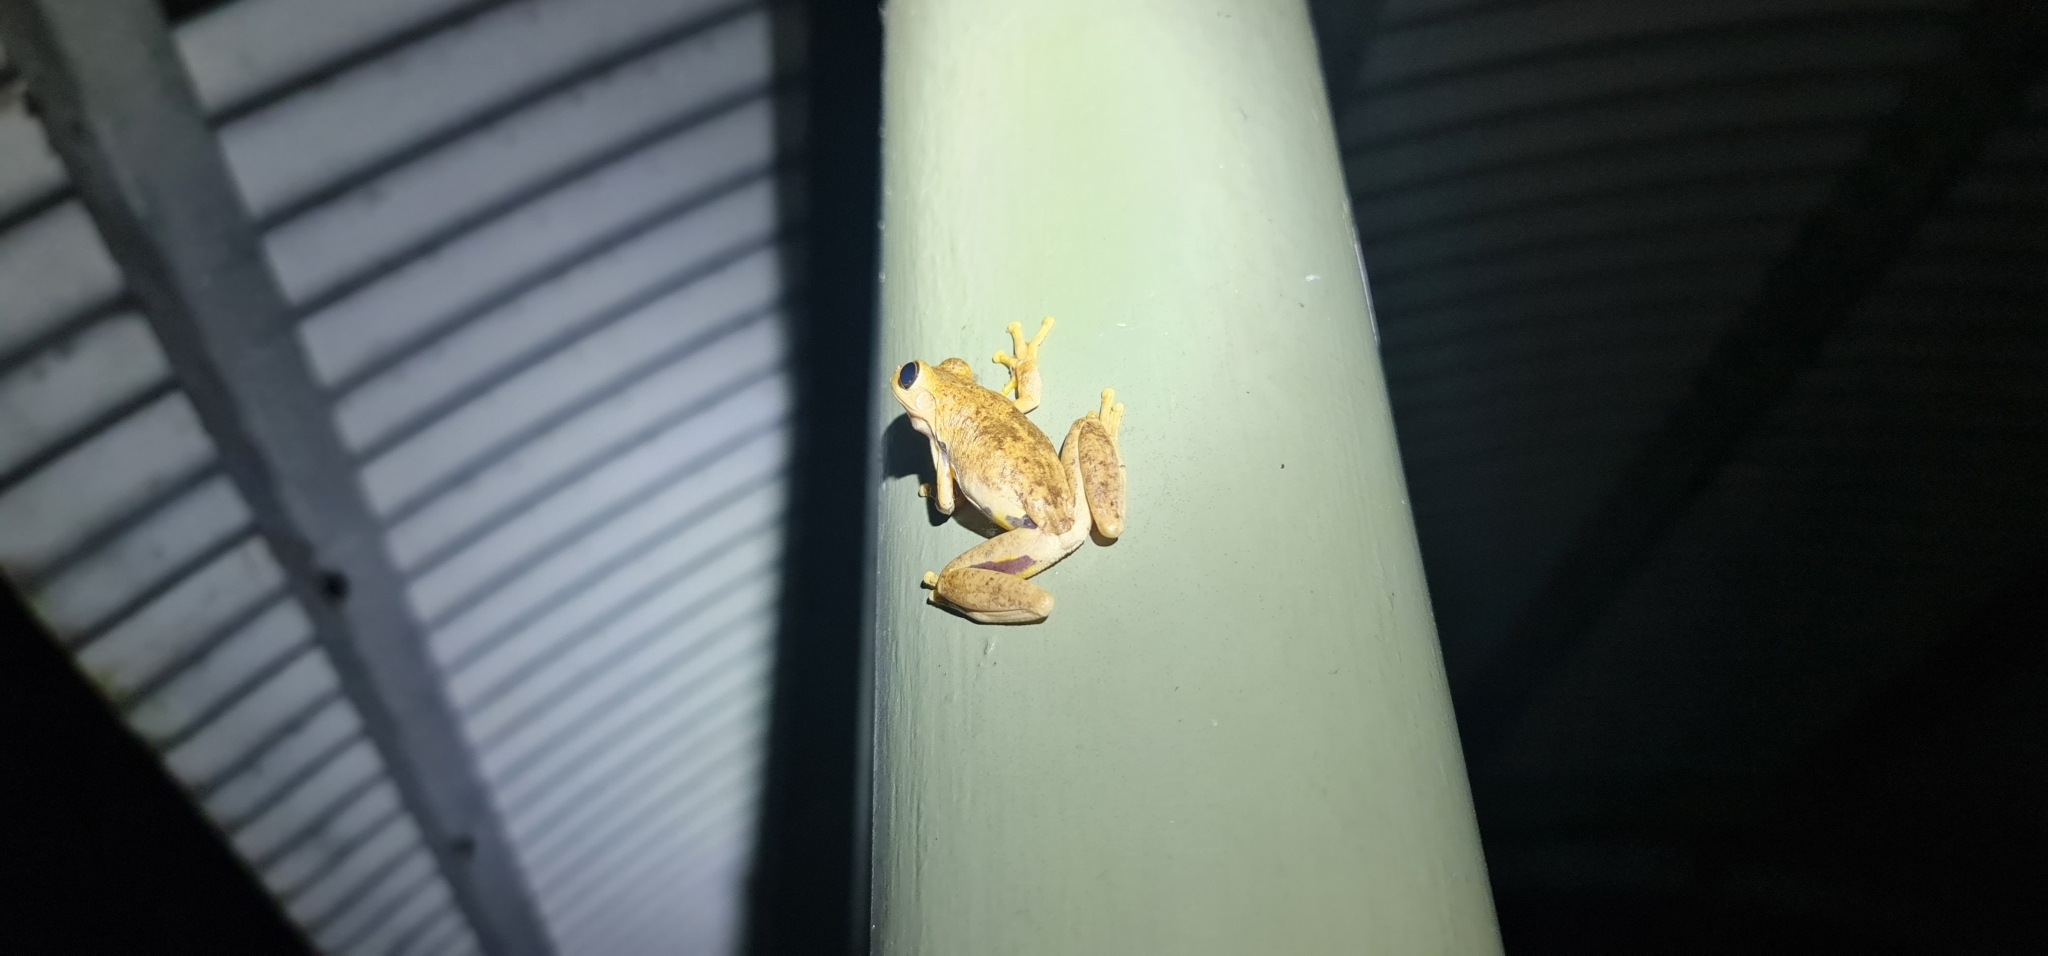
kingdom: Animalia
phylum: Chordata
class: Amphibia
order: Anura
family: Pelodryadidae
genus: Litoria
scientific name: Litoria
